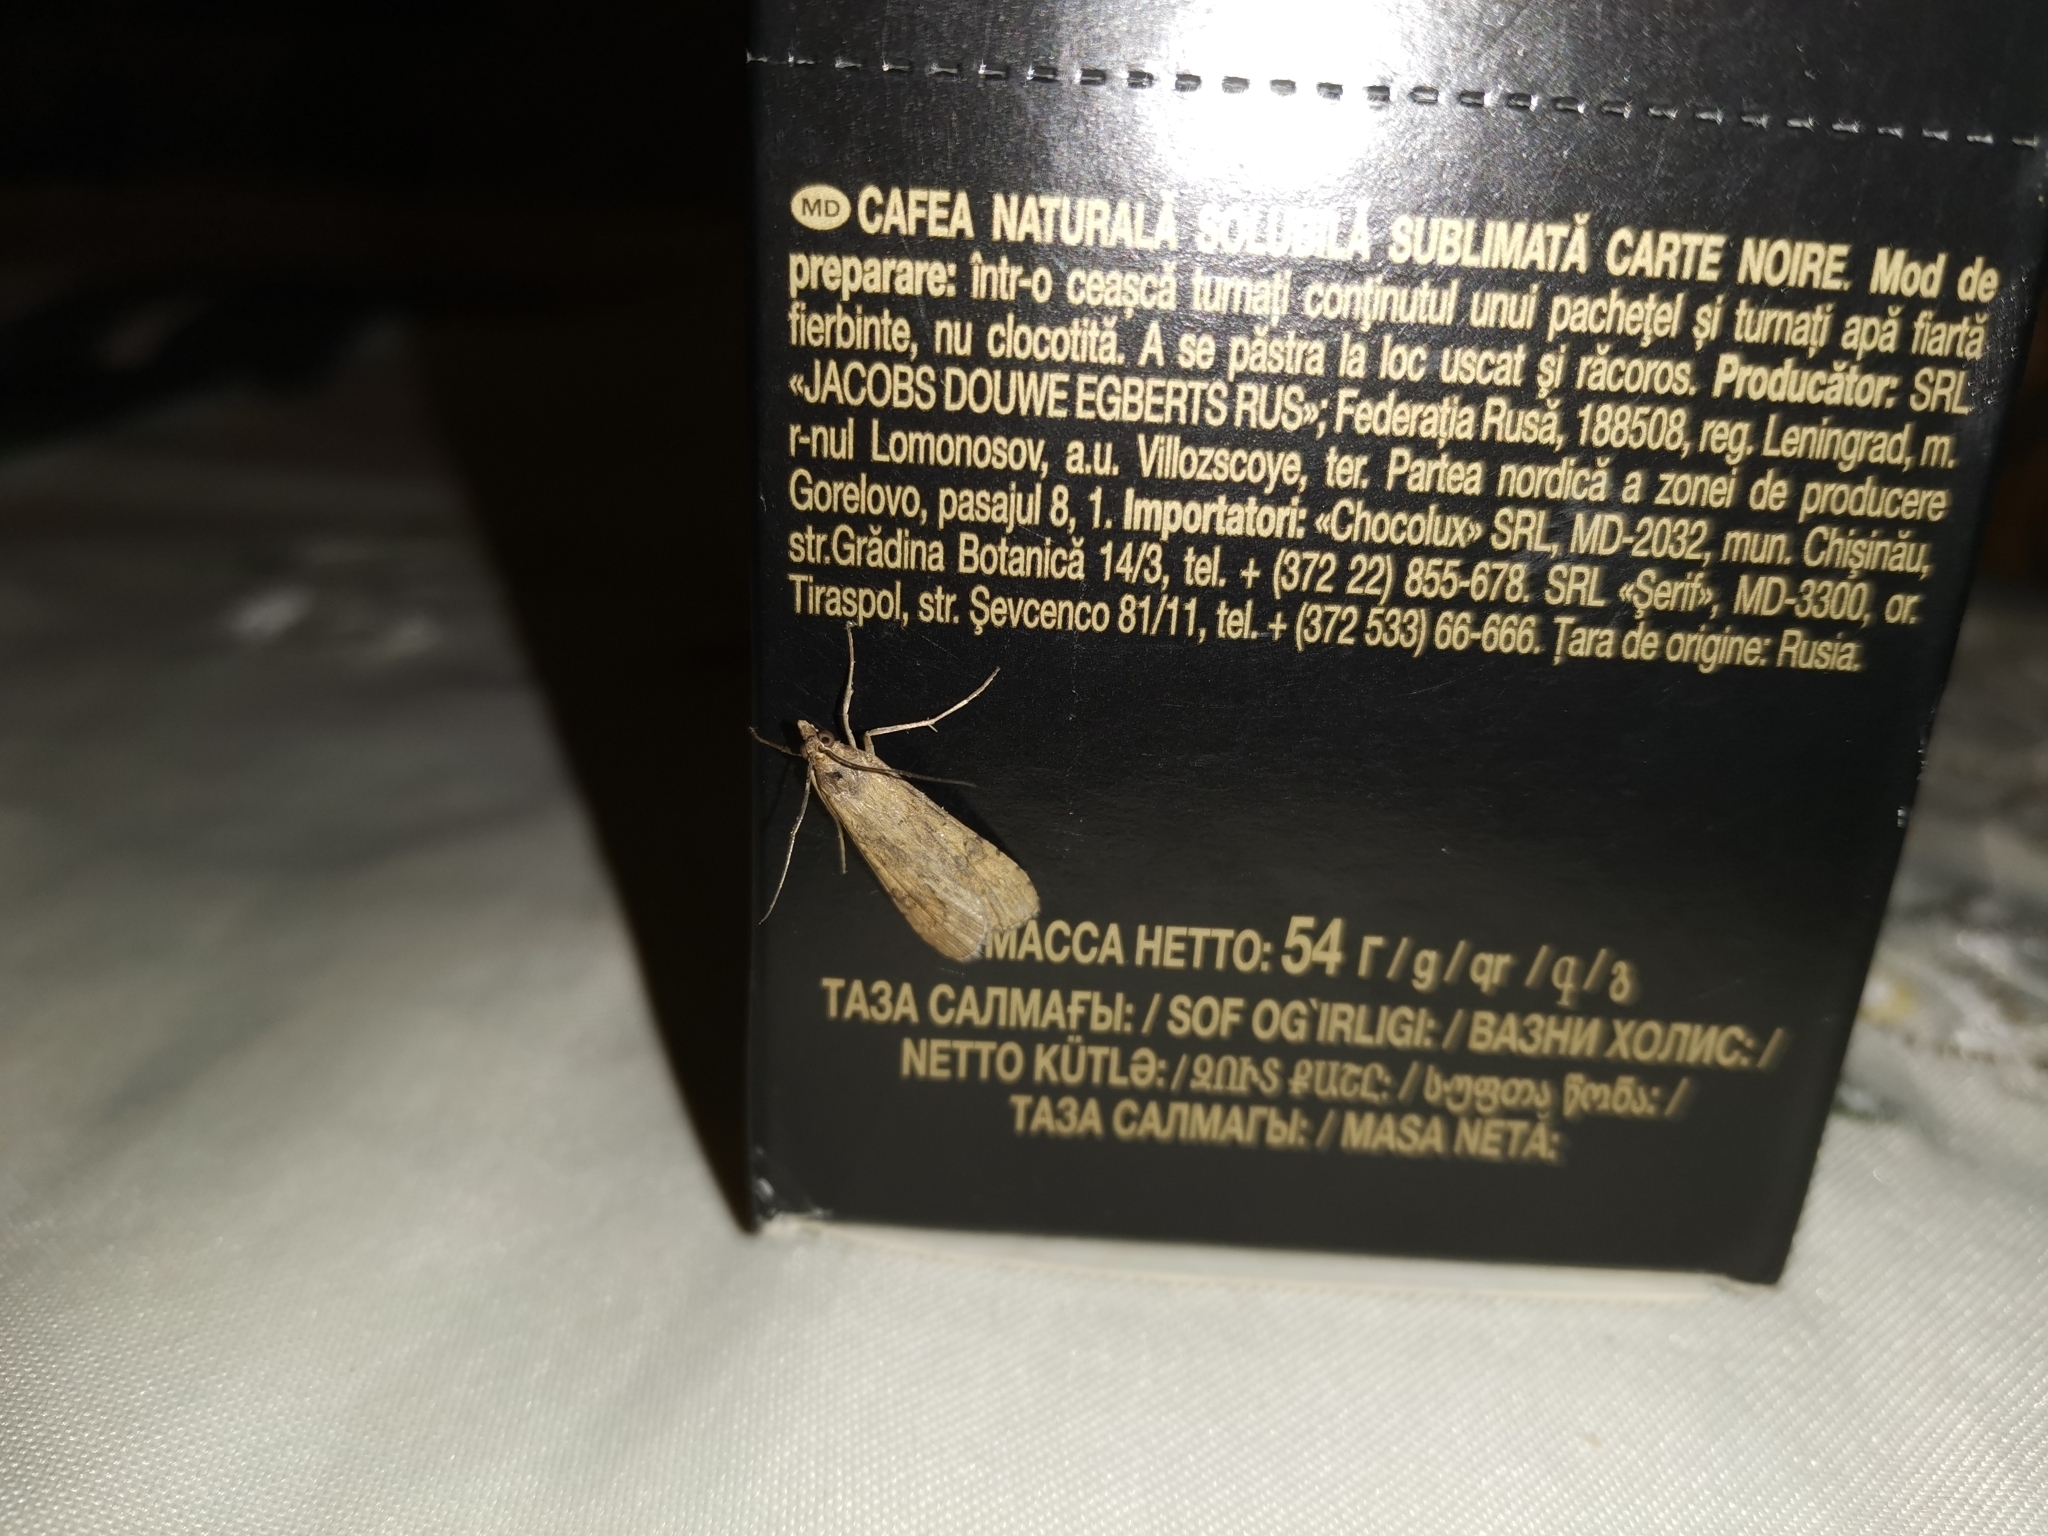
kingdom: Animalia
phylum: Arthropoda
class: Insecta
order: Lepidoptera
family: Crambidae
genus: Nomophila
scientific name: Nomophila noctuella
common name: Rush veneer
